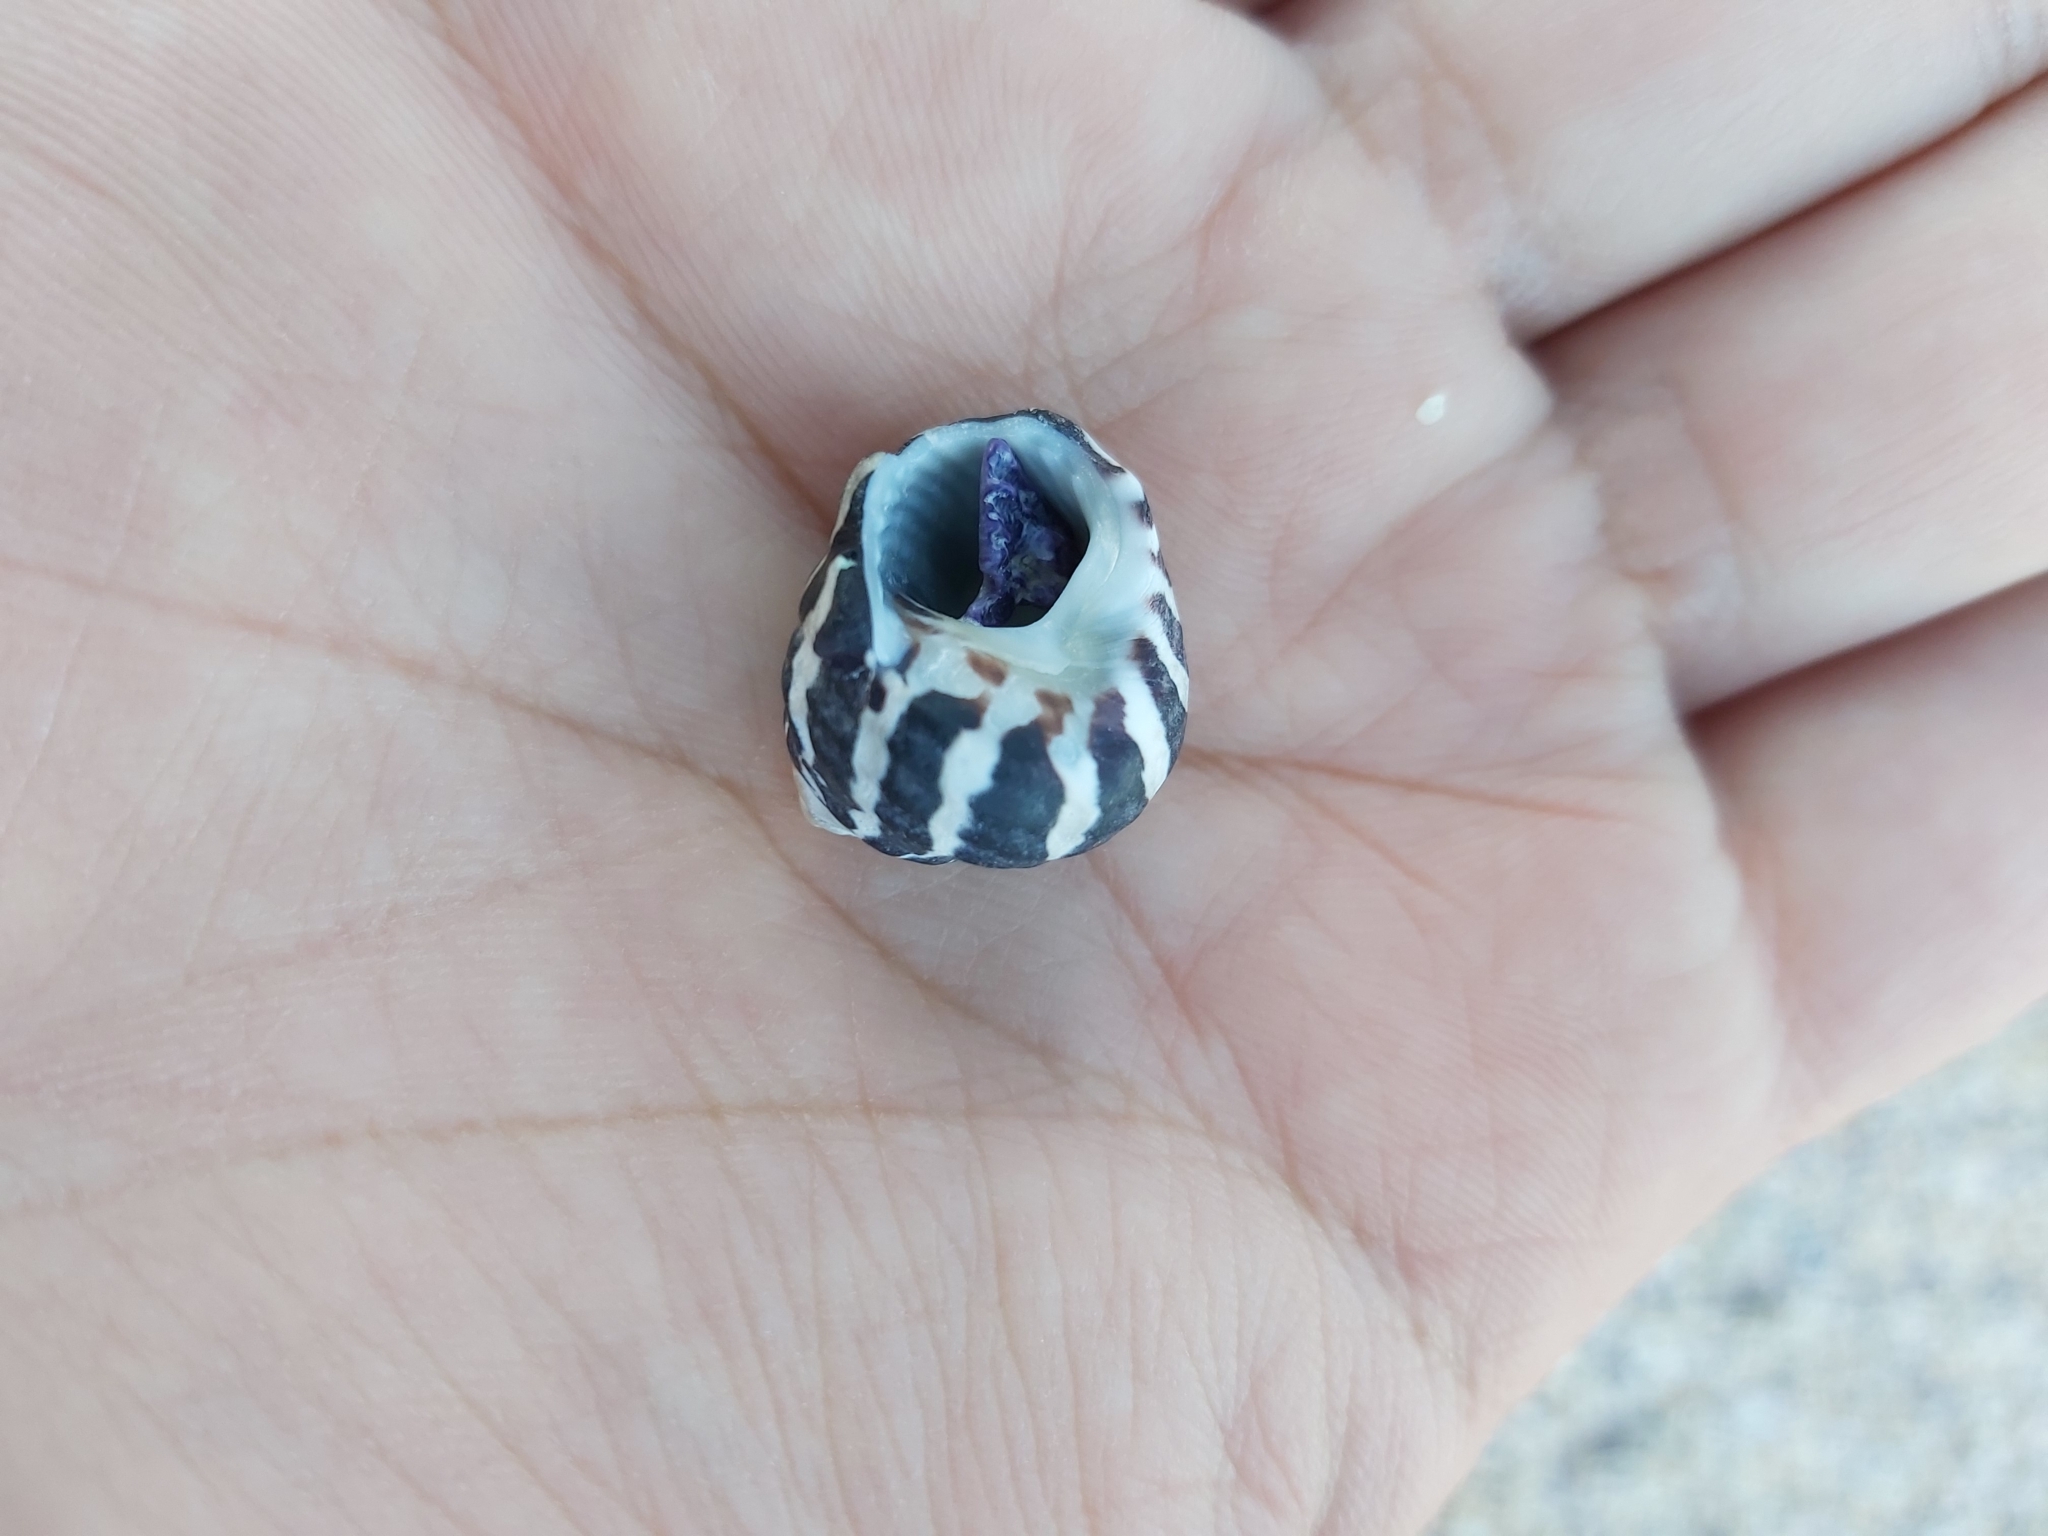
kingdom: Animalia
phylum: Mollusca
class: Gastropoda
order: Trochida
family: Trochidae
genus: Austrocochlea
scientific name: Austrocochlea porcata
